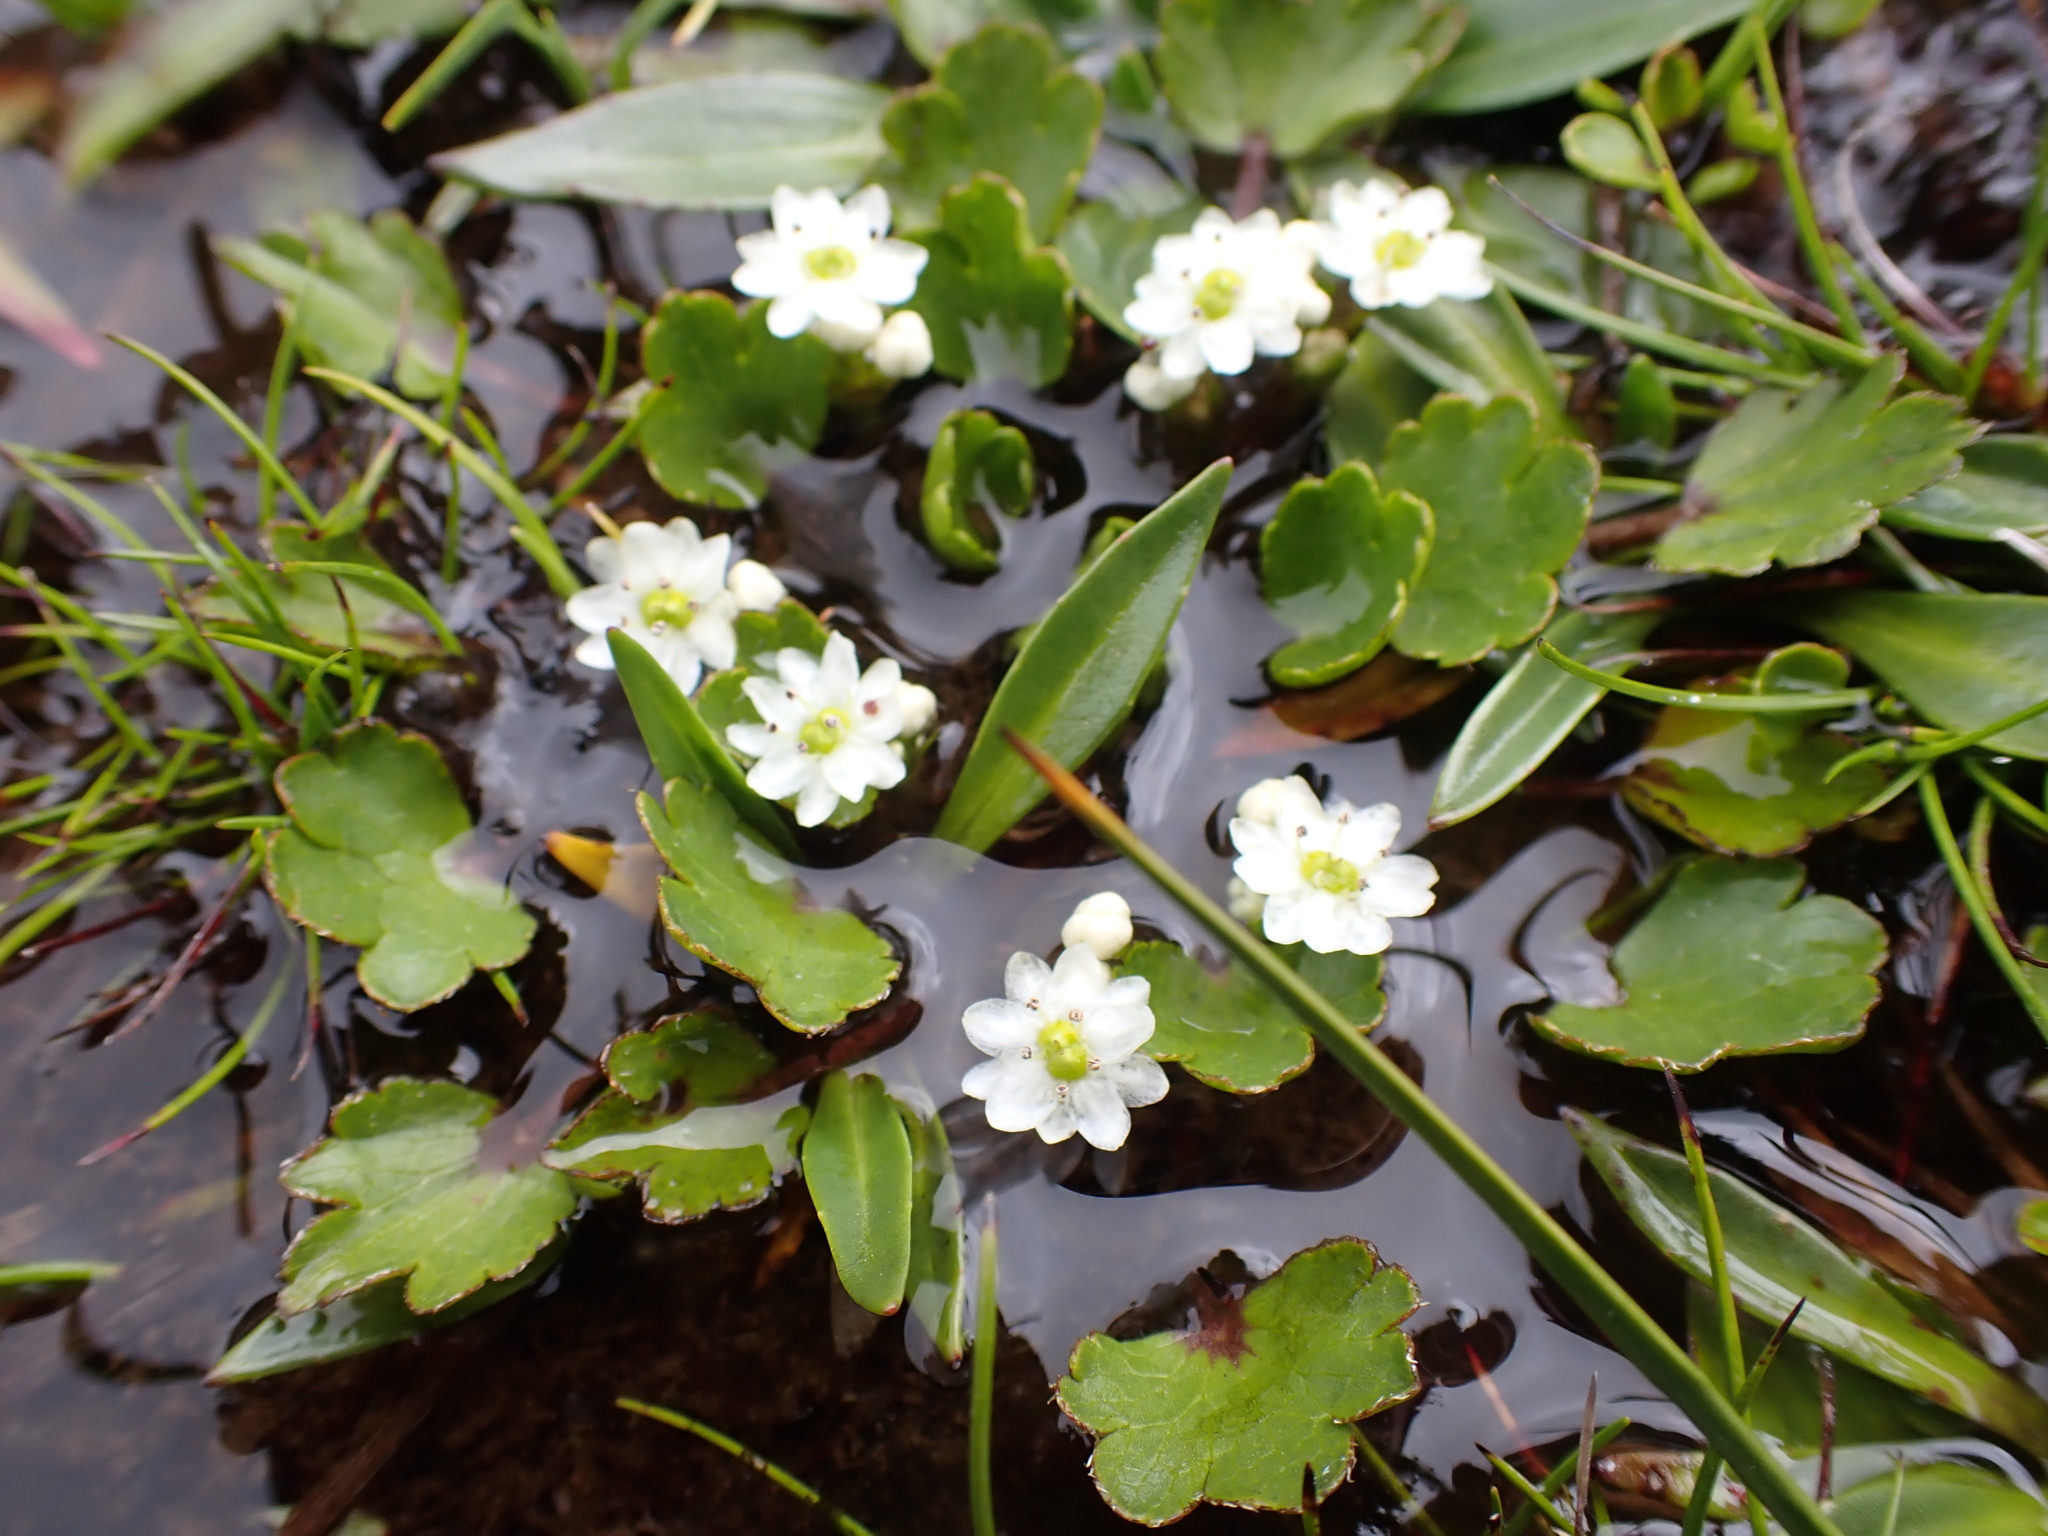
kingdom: Plantae
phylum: Tracheophyta
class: Magnoliopsida
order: Apiales
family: Apiaceae
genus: Dichosciadium
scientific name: Dichosciadium ranunculaceum
